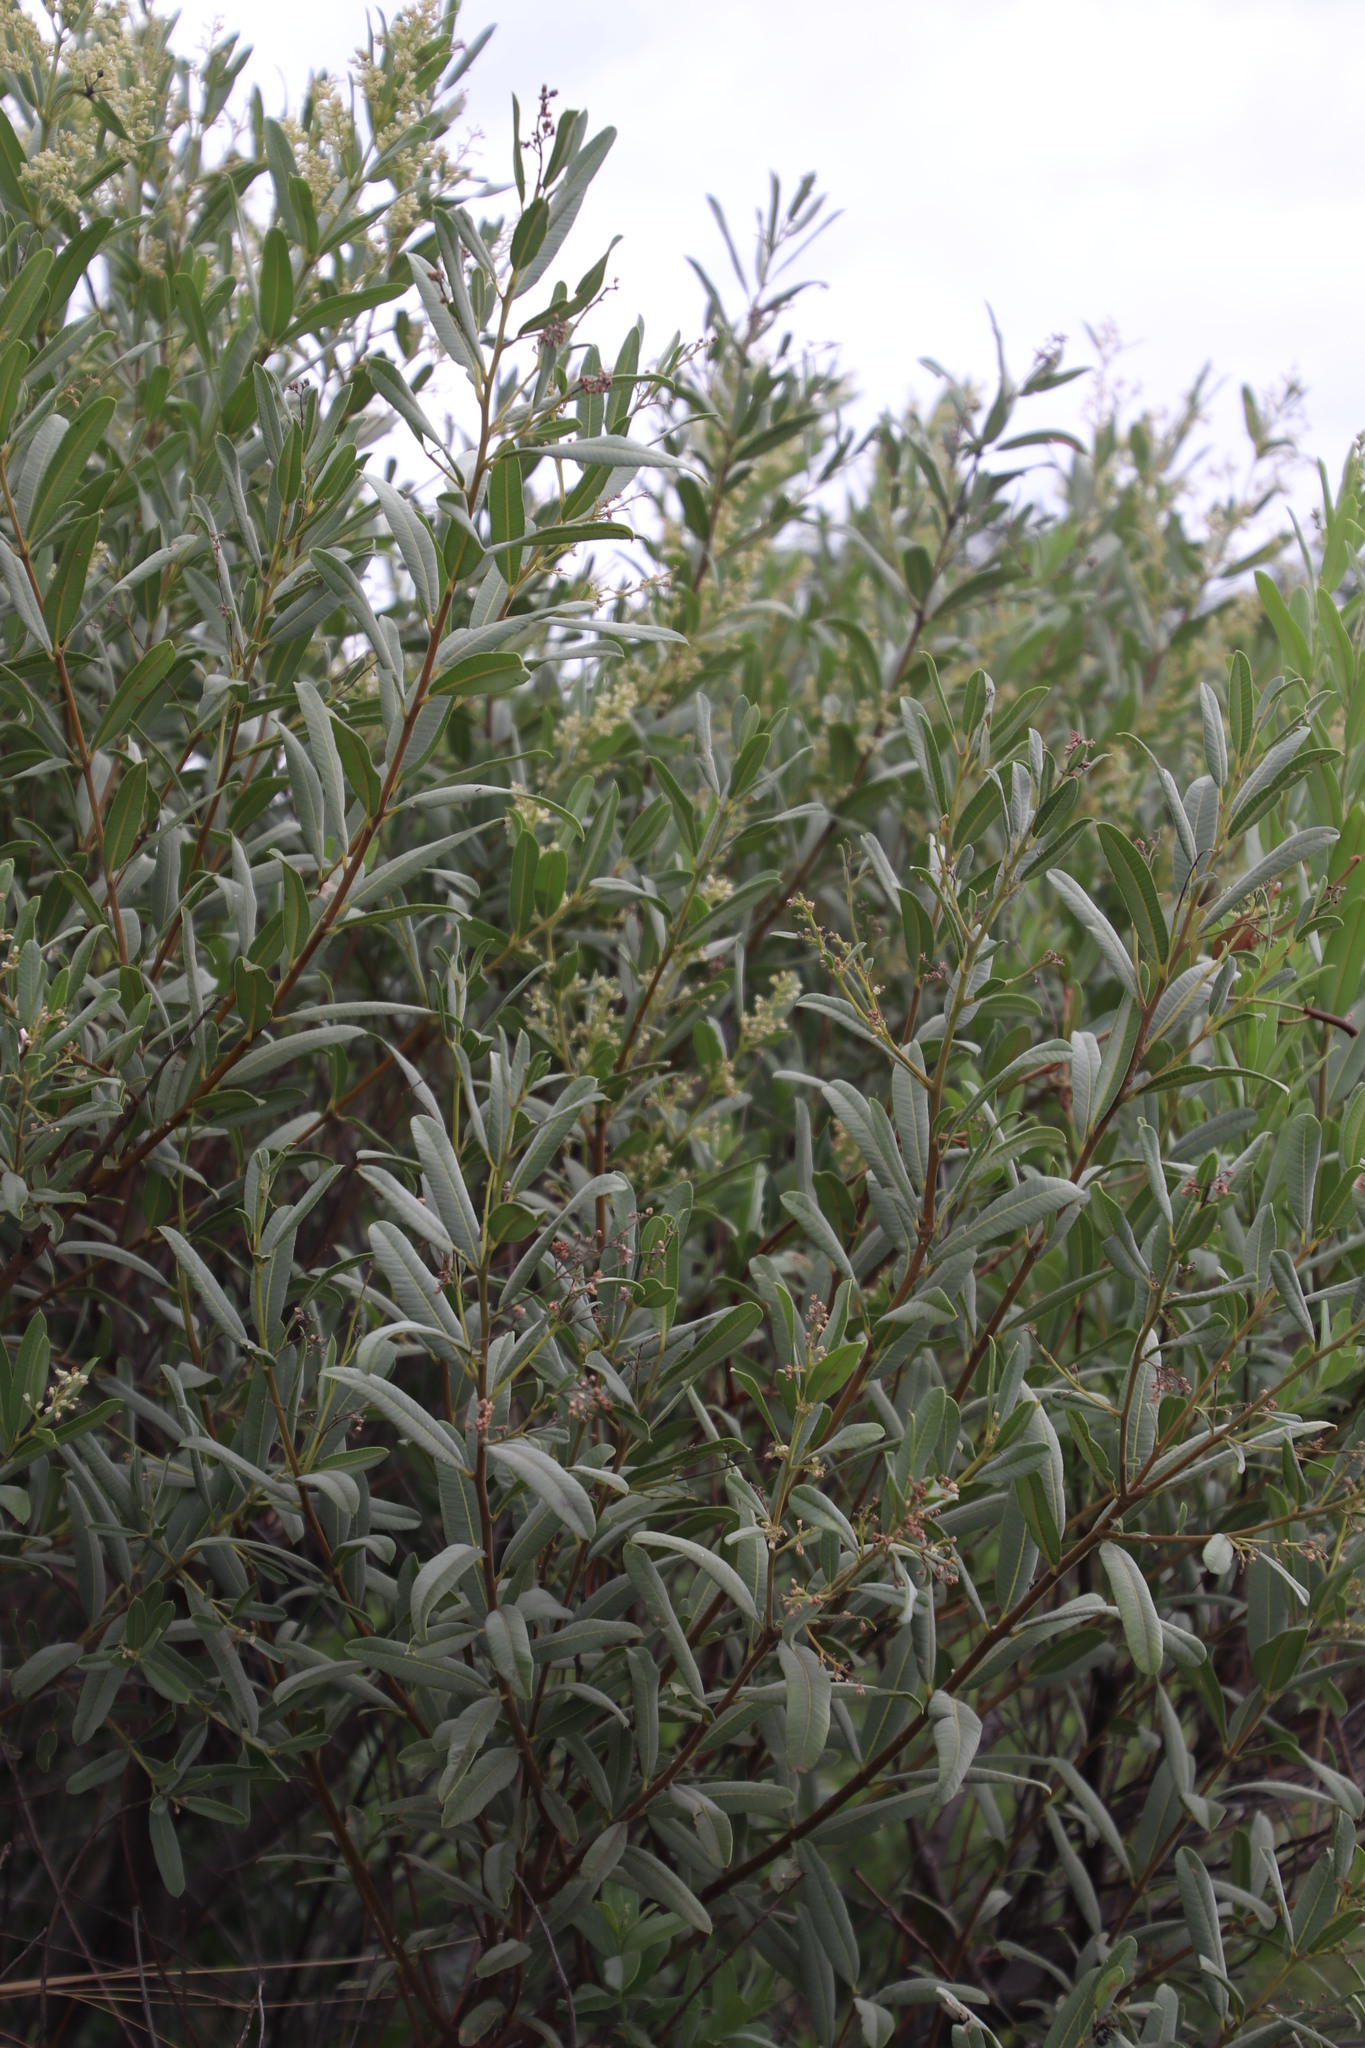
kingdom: Plantae
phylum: Tracheophyta
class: Magnoliopsida
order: Sapindales
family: Anacardiaceae
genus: Ozoroa
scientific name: Ozoroa paniculosa
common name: Bushveld ozoroa
